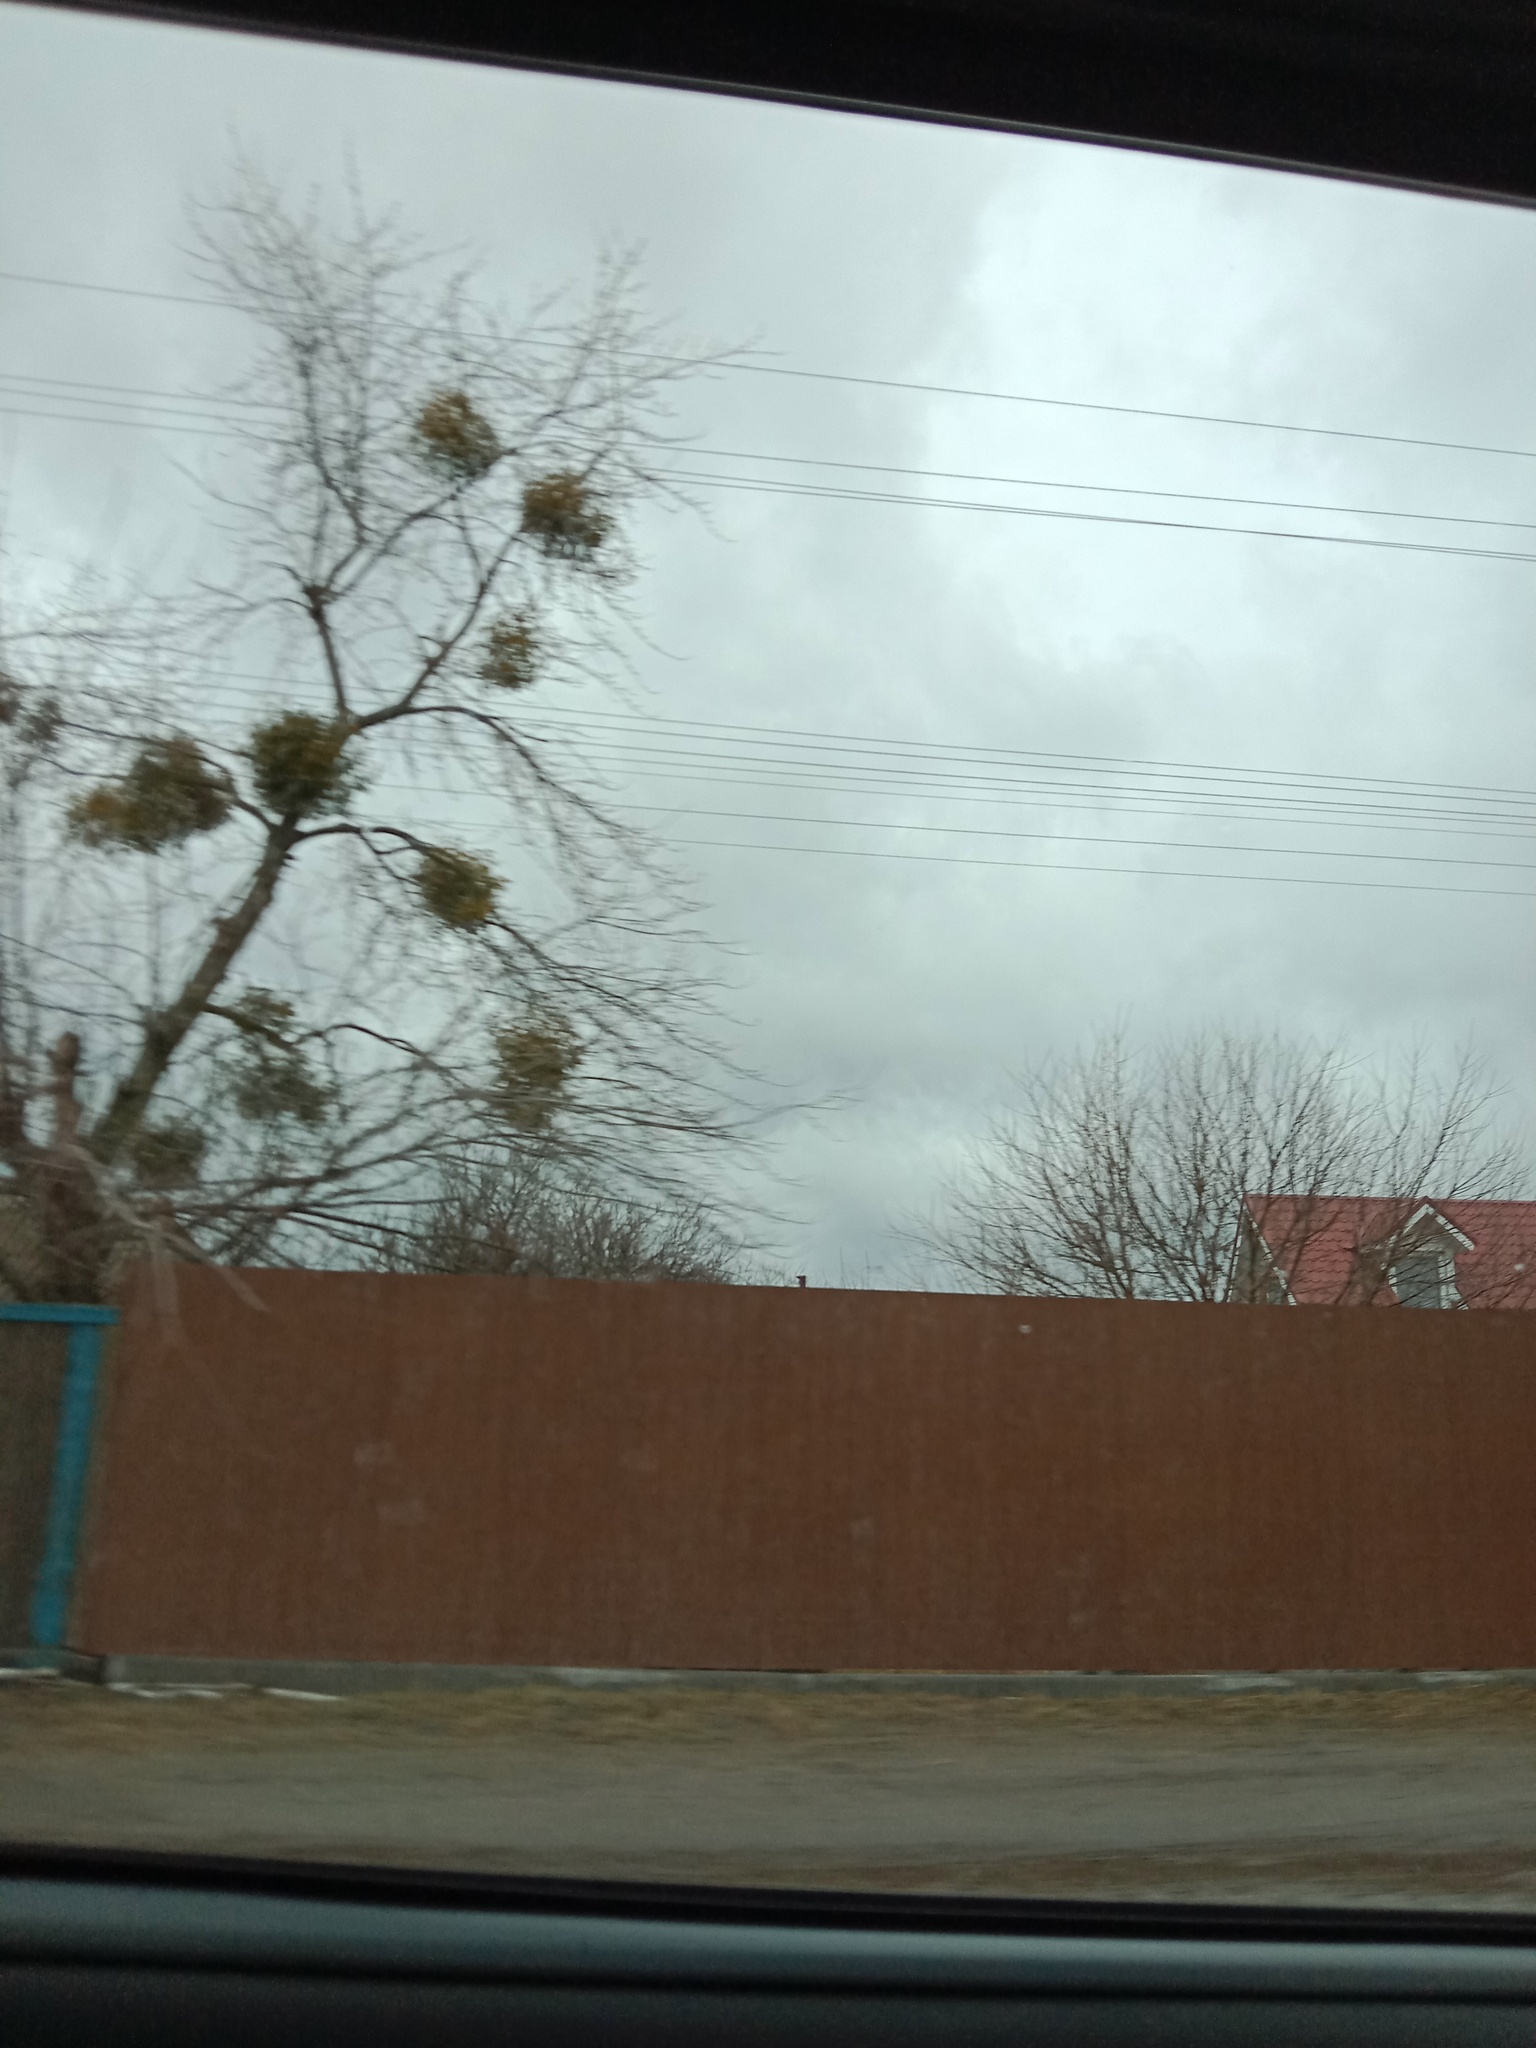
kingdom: Plantae
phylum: Tracheophyta
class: Magnoliopsida
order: Santalales
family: Viscaceae
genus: Viscum
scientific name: Viscum album
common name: Mistletoe
